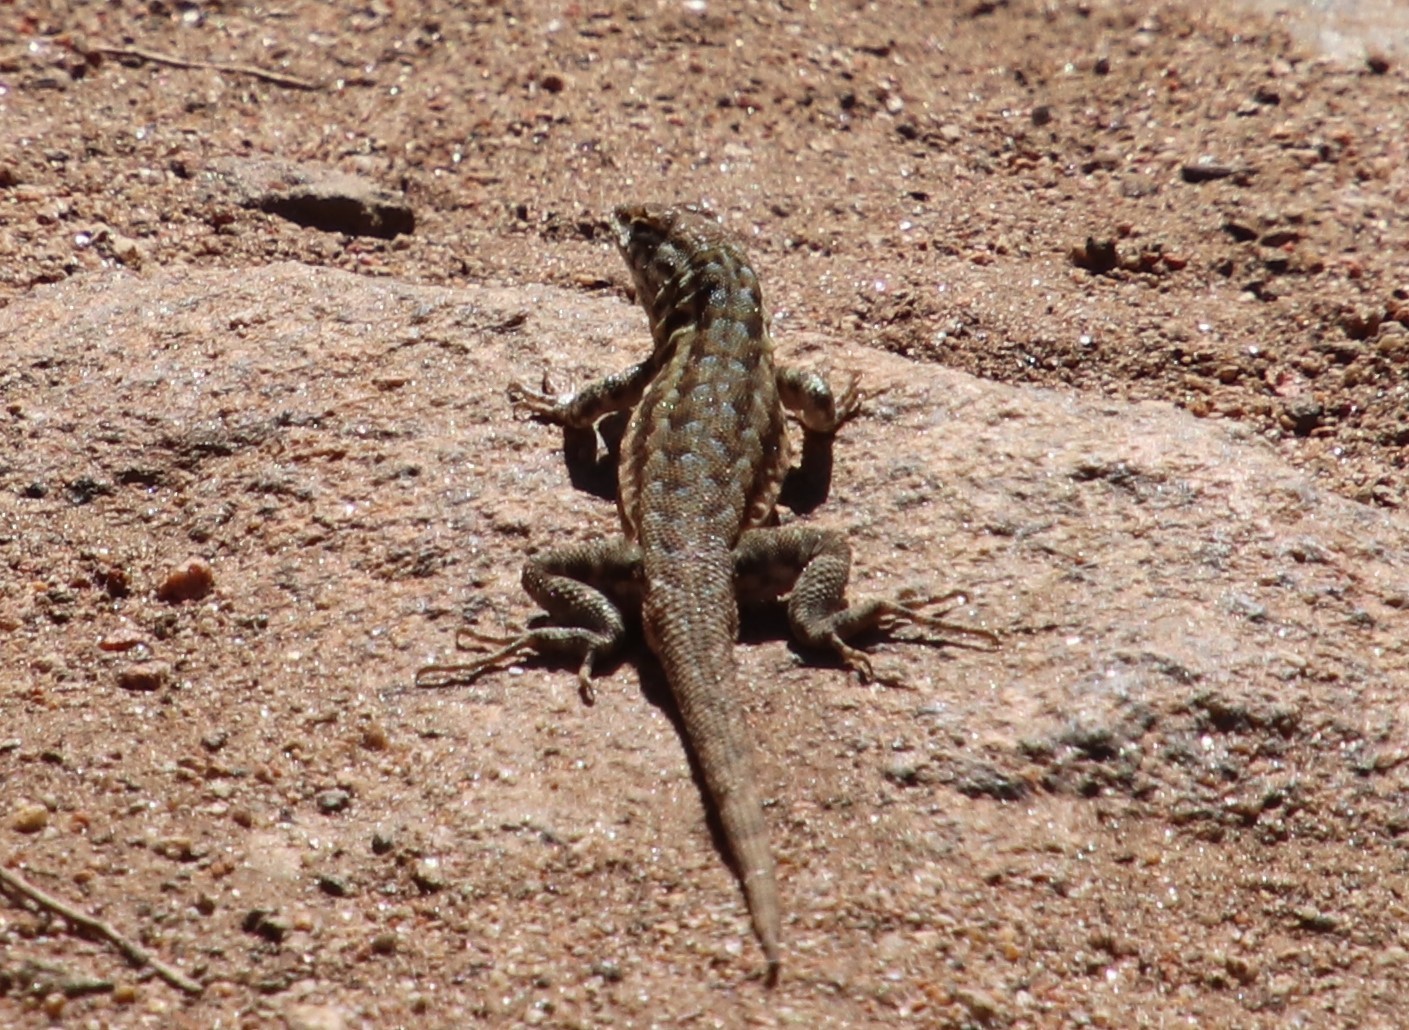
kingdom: Animalia
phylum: Chordata
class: Squamata
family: Phrynosomatidae
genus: Uta
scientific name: Uta stansburiana
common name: Side-blotched lizard
